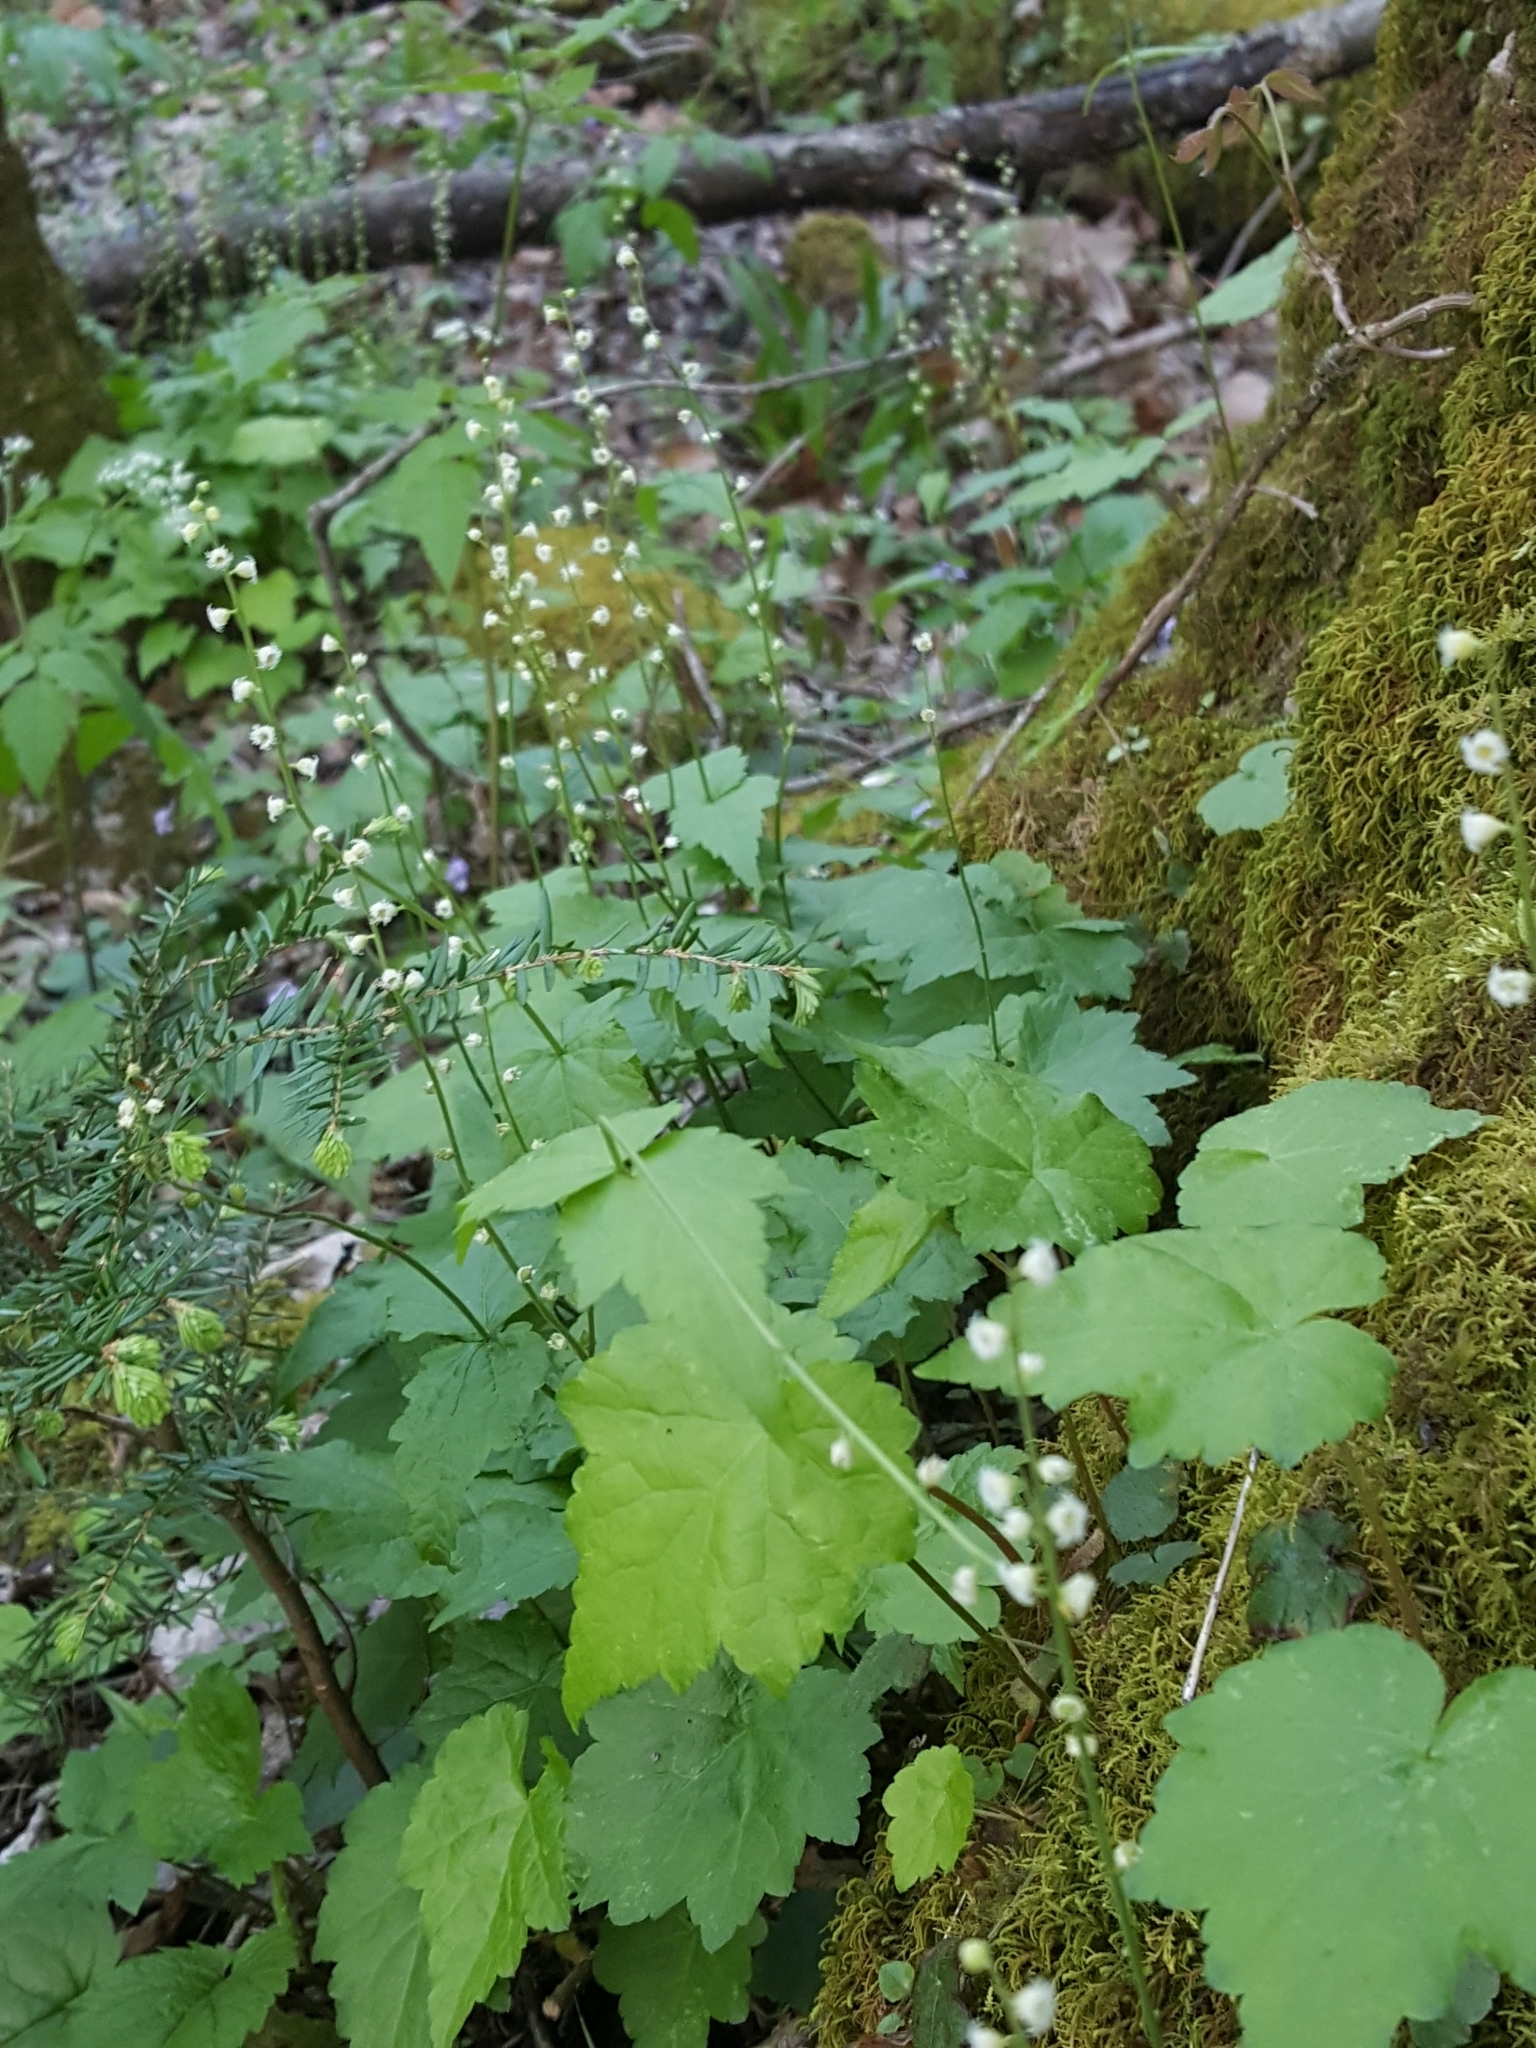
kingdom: Plantae
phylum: Tracheophyta
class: Magnoliopsida
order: Saxifragales
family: Saxifragaceae
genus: Mitella
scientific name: Mitella diphylla
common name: Coolwort
